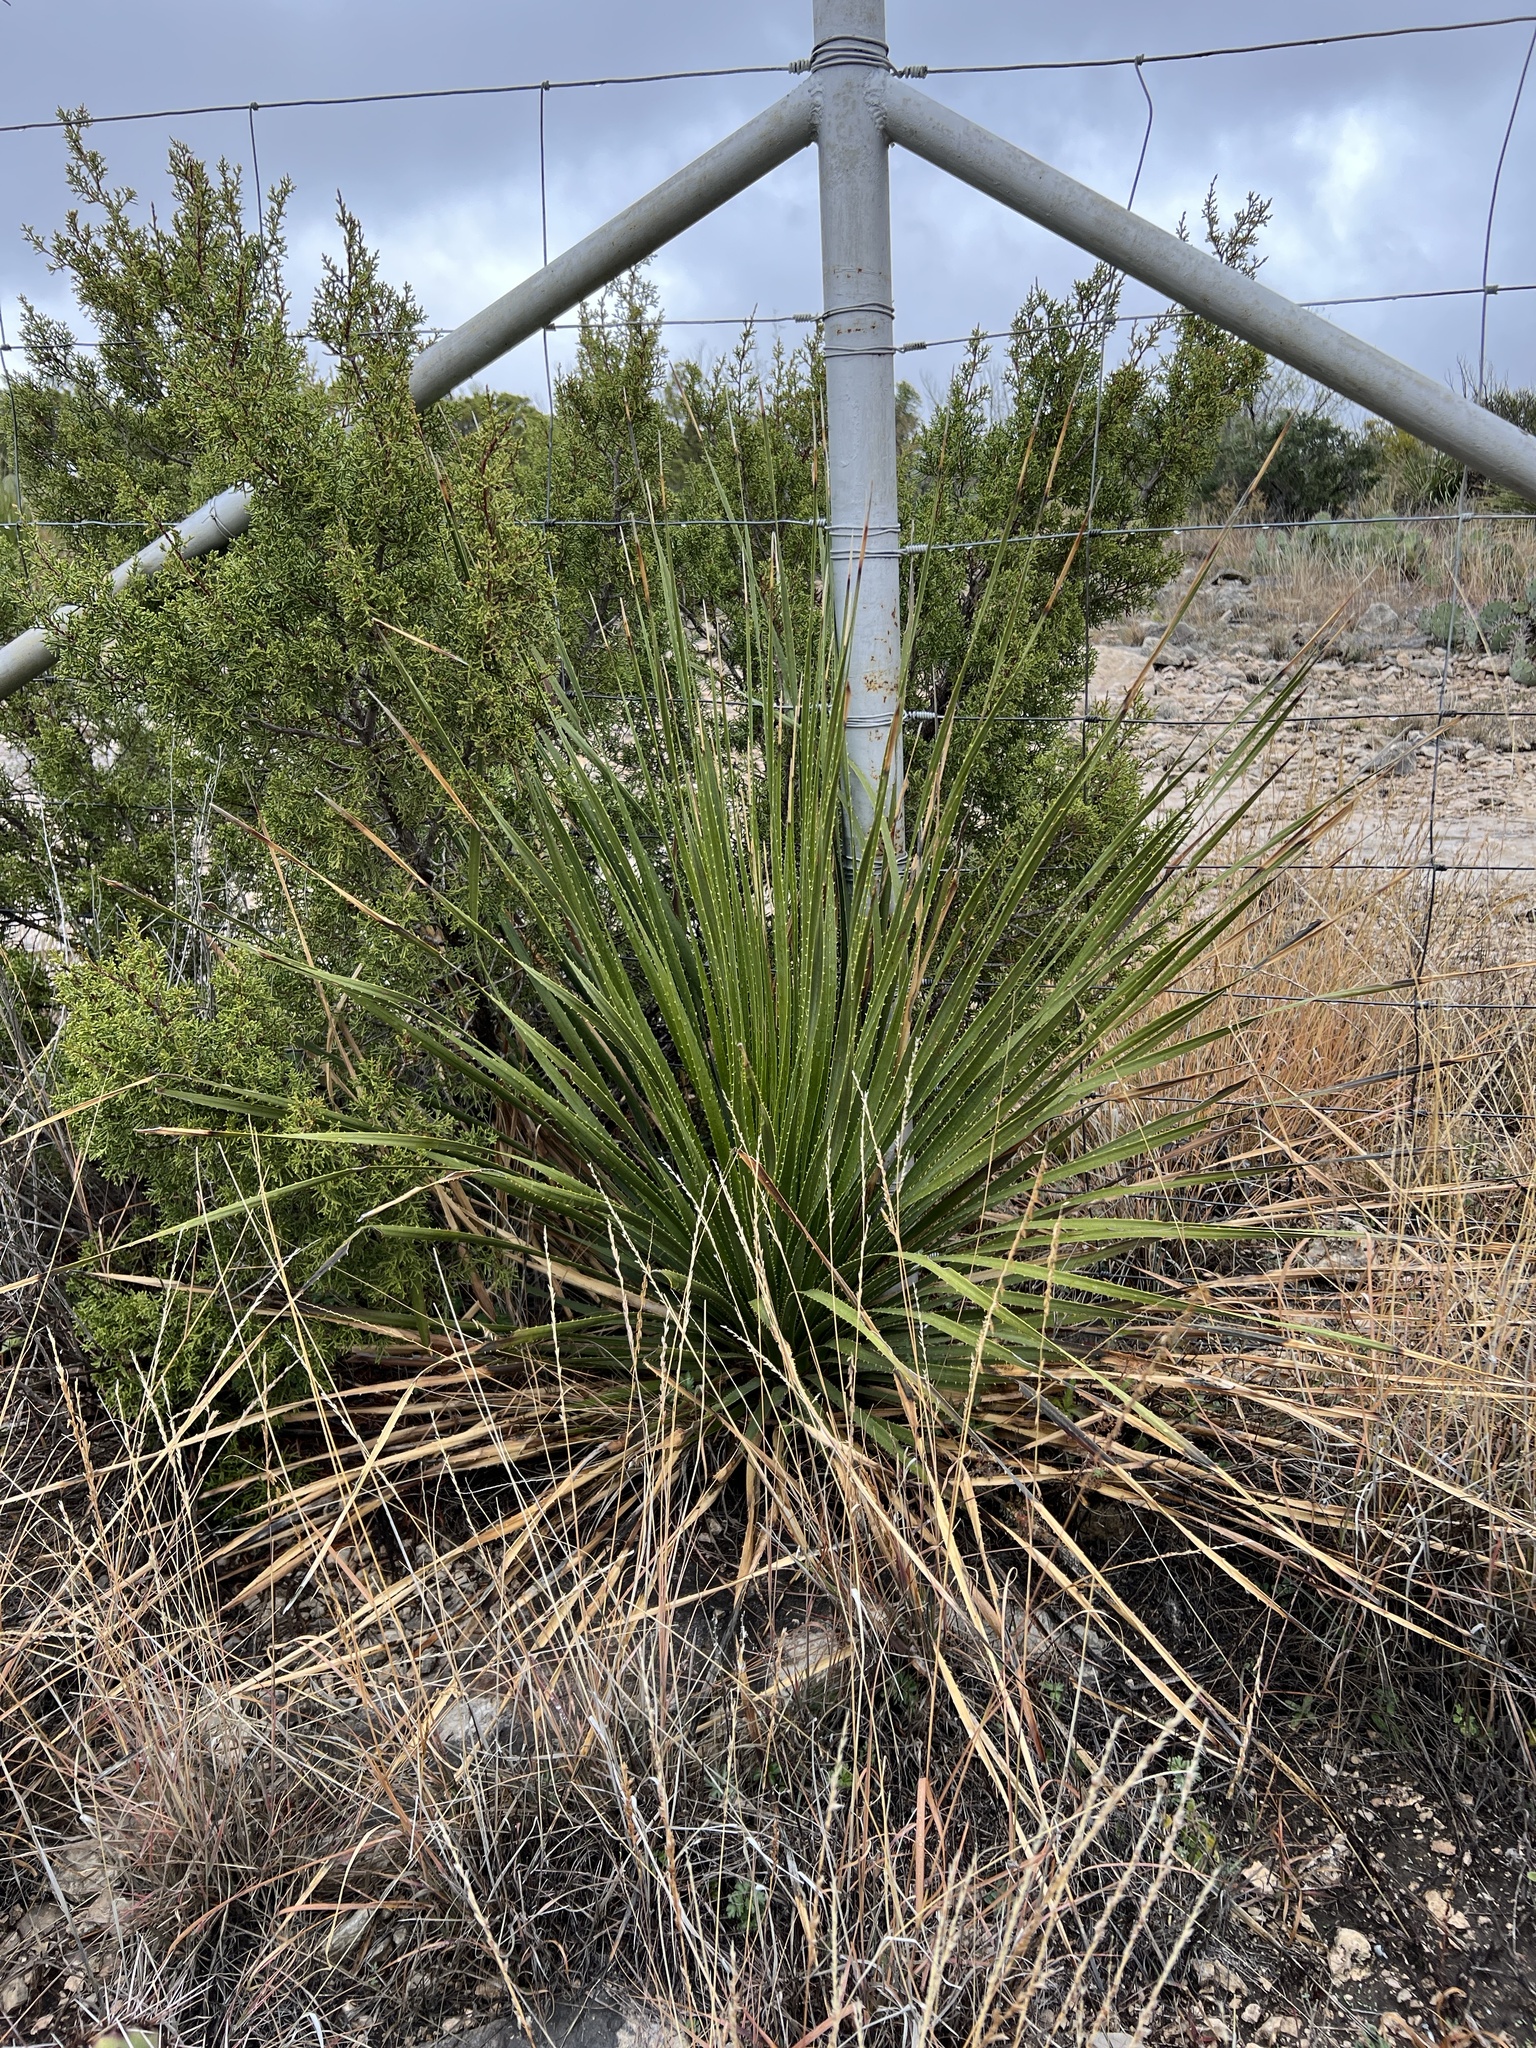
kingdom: Plantae
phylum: Tracheophyta
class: Liliopsida
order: Asparagales
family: Asparagaceae
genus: Dasylirion
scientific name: Dasylirion texanum
